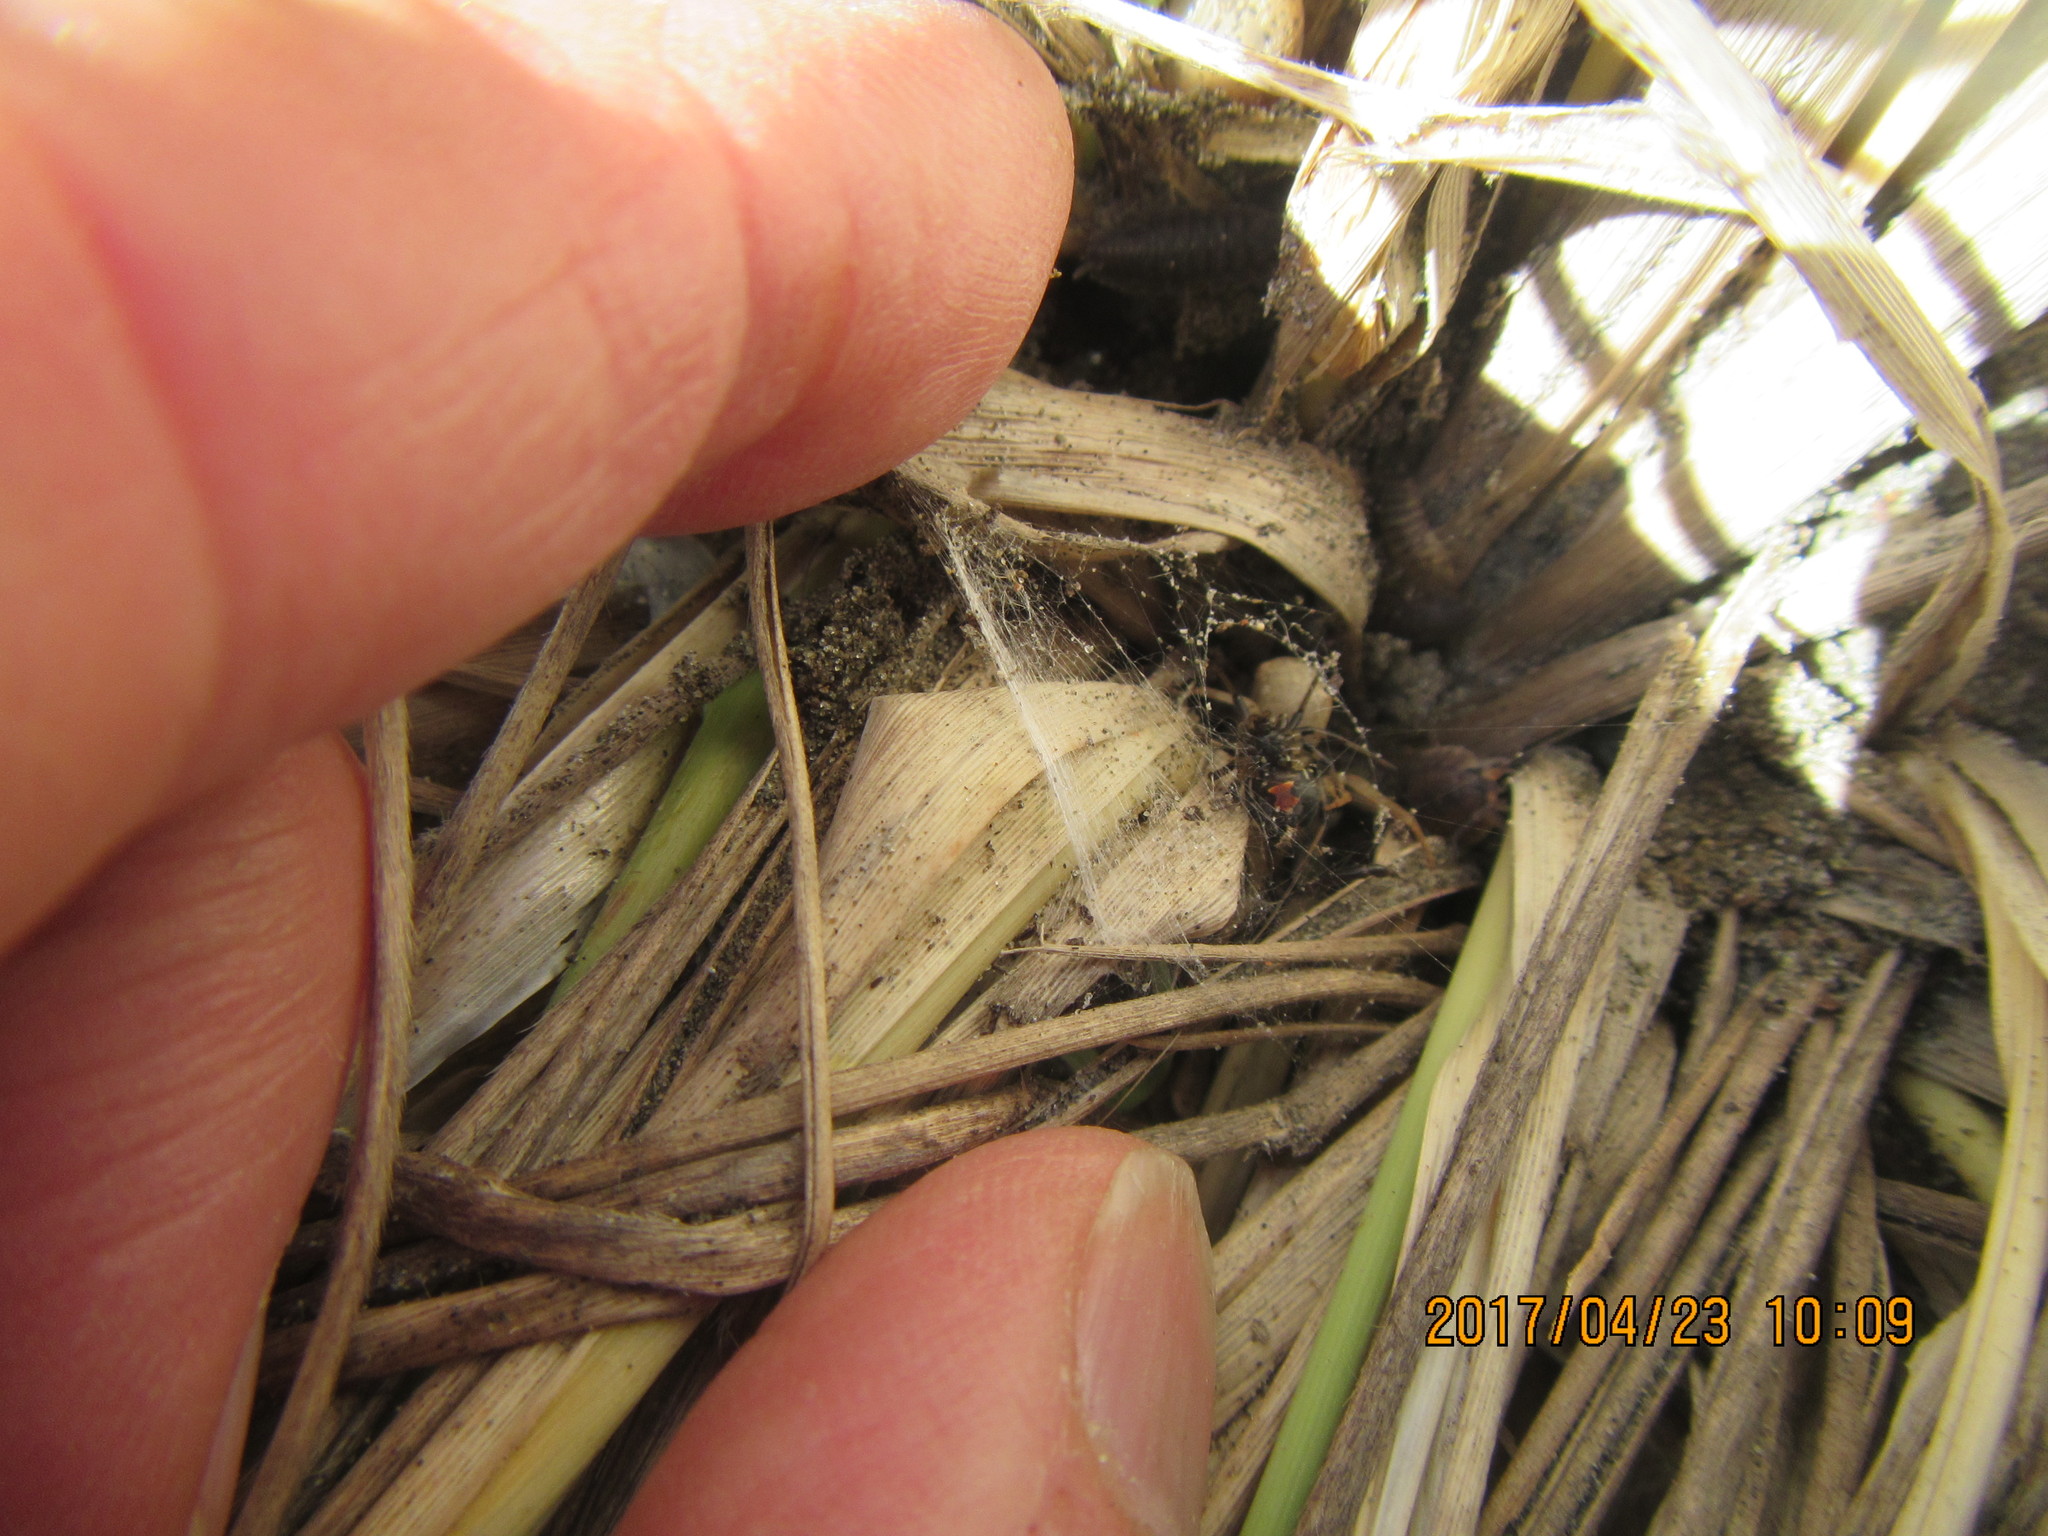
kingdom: Animalia
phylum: Arthropoda
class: Arachnida
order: Araneae
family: Theridiidae
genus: Latrodectus
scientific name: Latrodectus katipo
